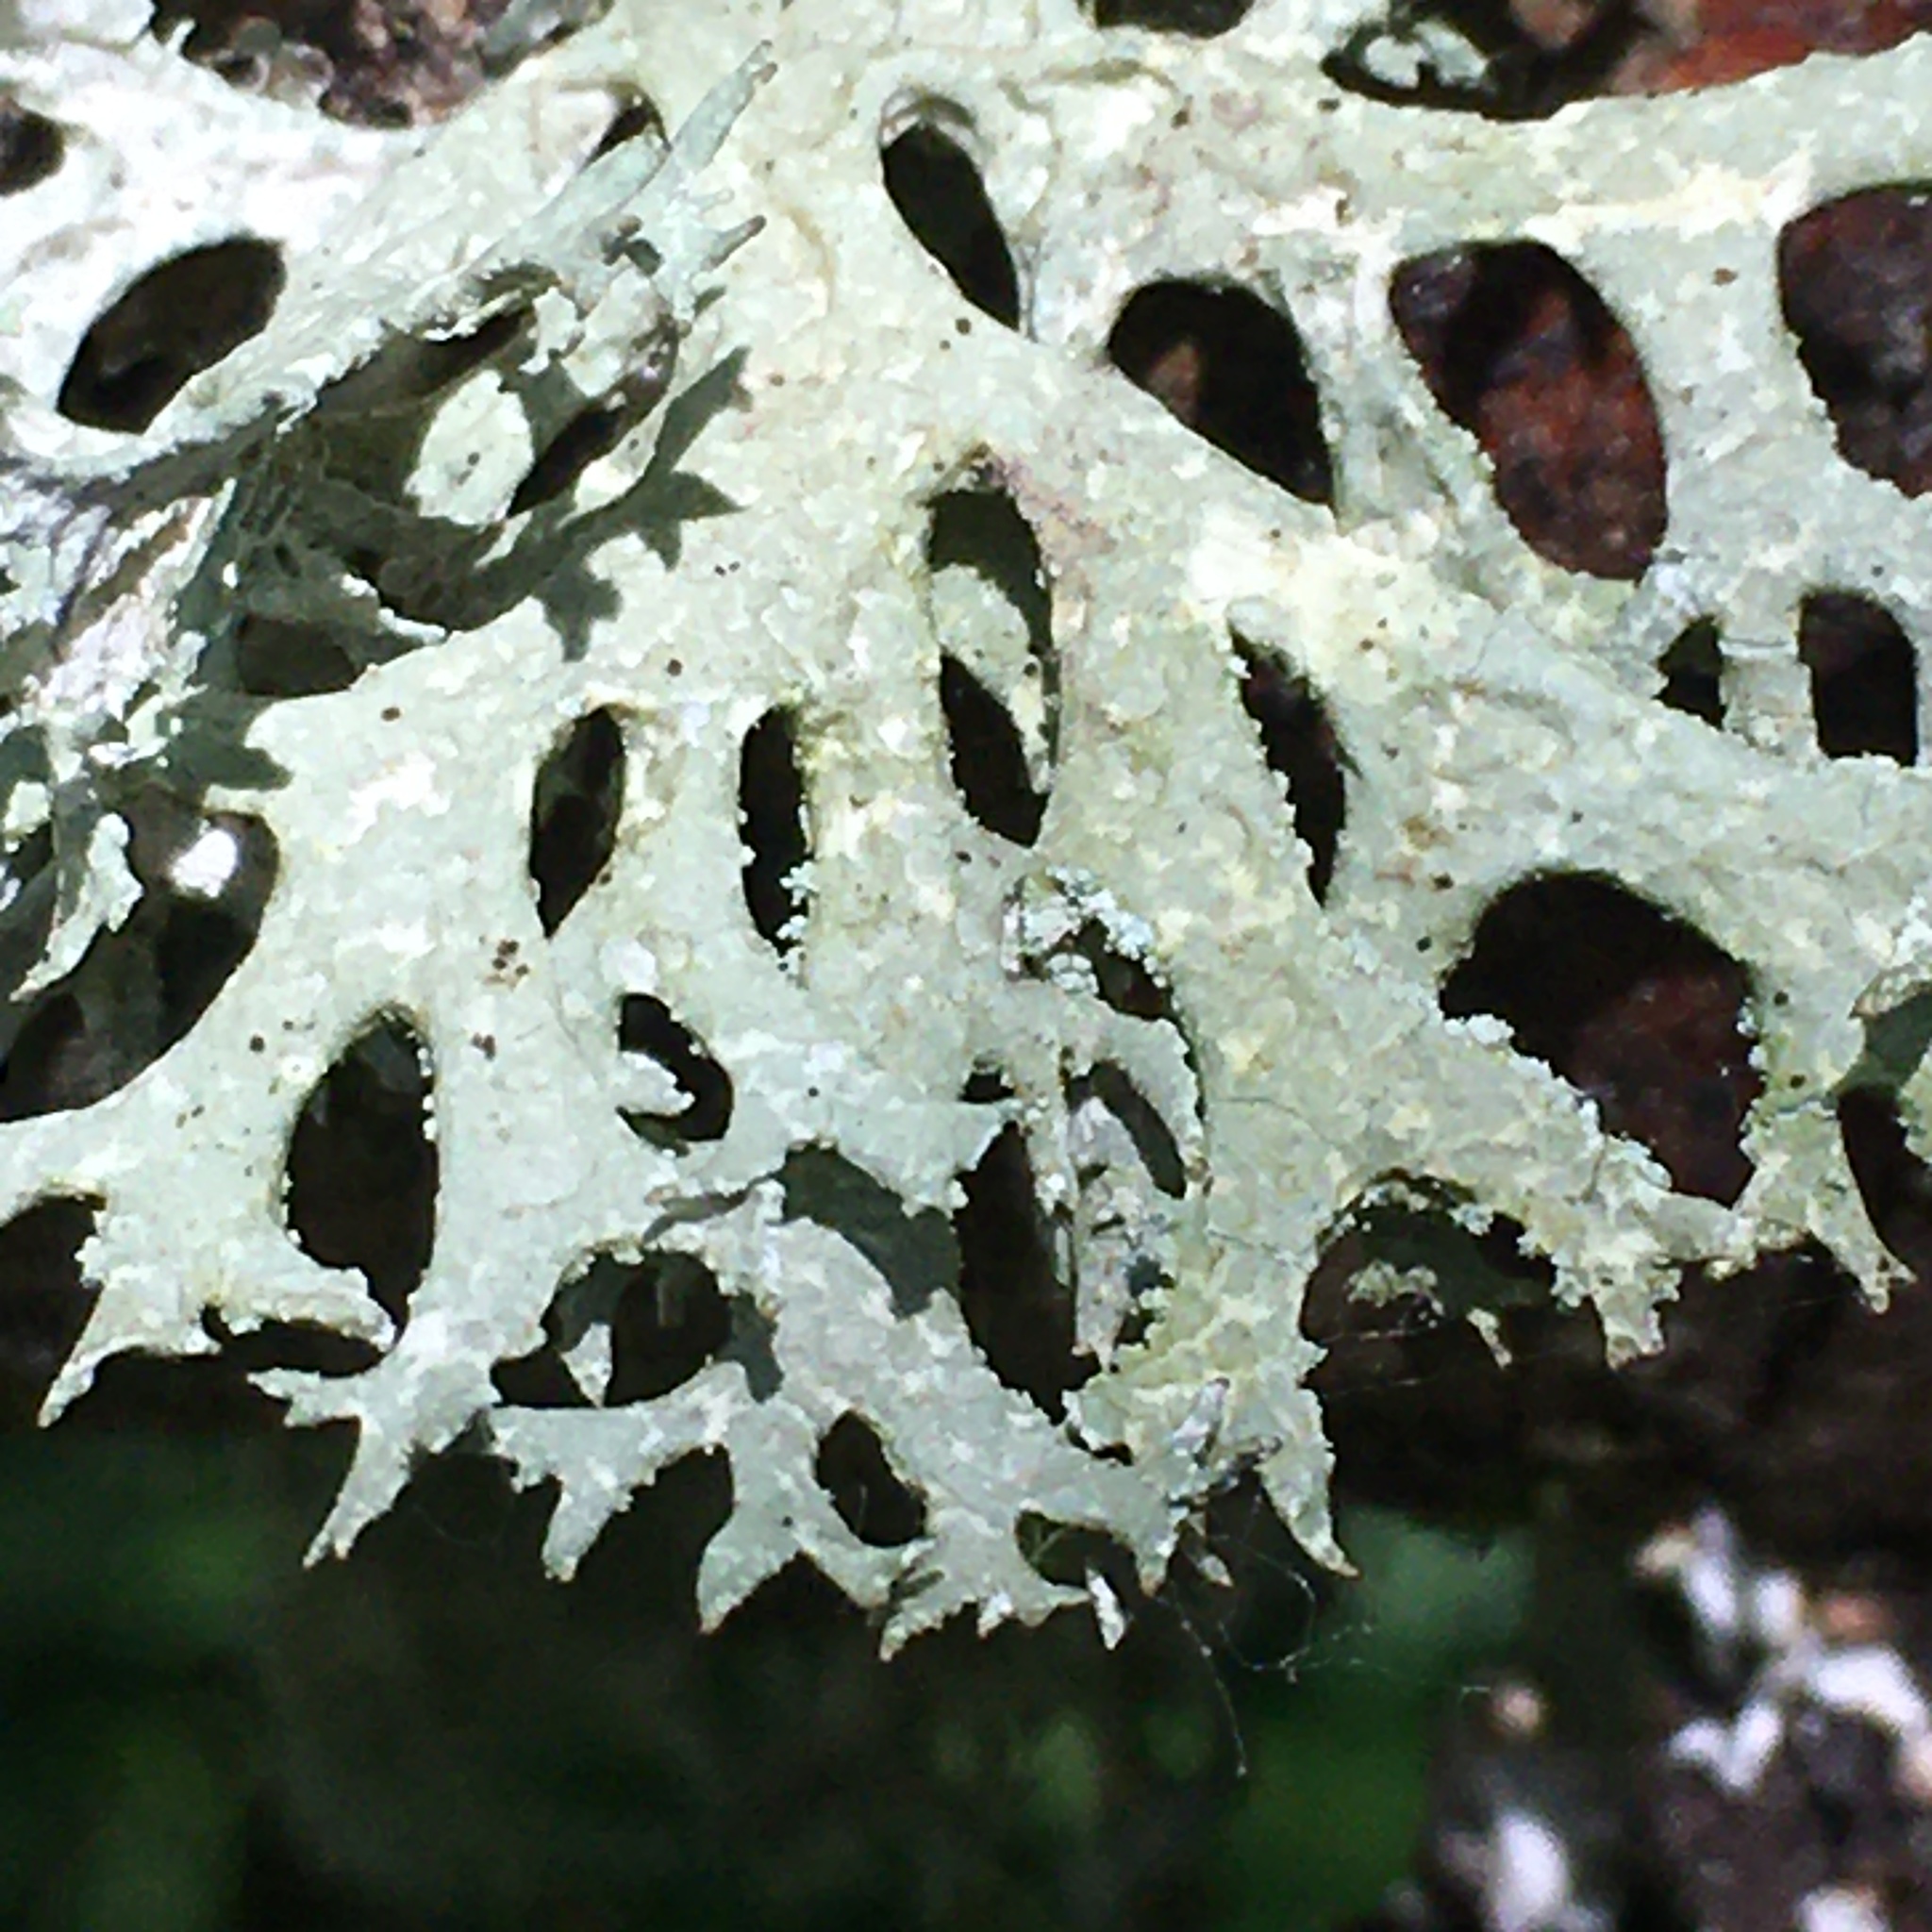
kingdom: Fungi
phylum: Ascomycota
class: Lecanoromycetes
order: Lecanorales
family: Parmeliaceae
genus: Evernia
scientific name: Evernia prunastri
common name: Oak moss
